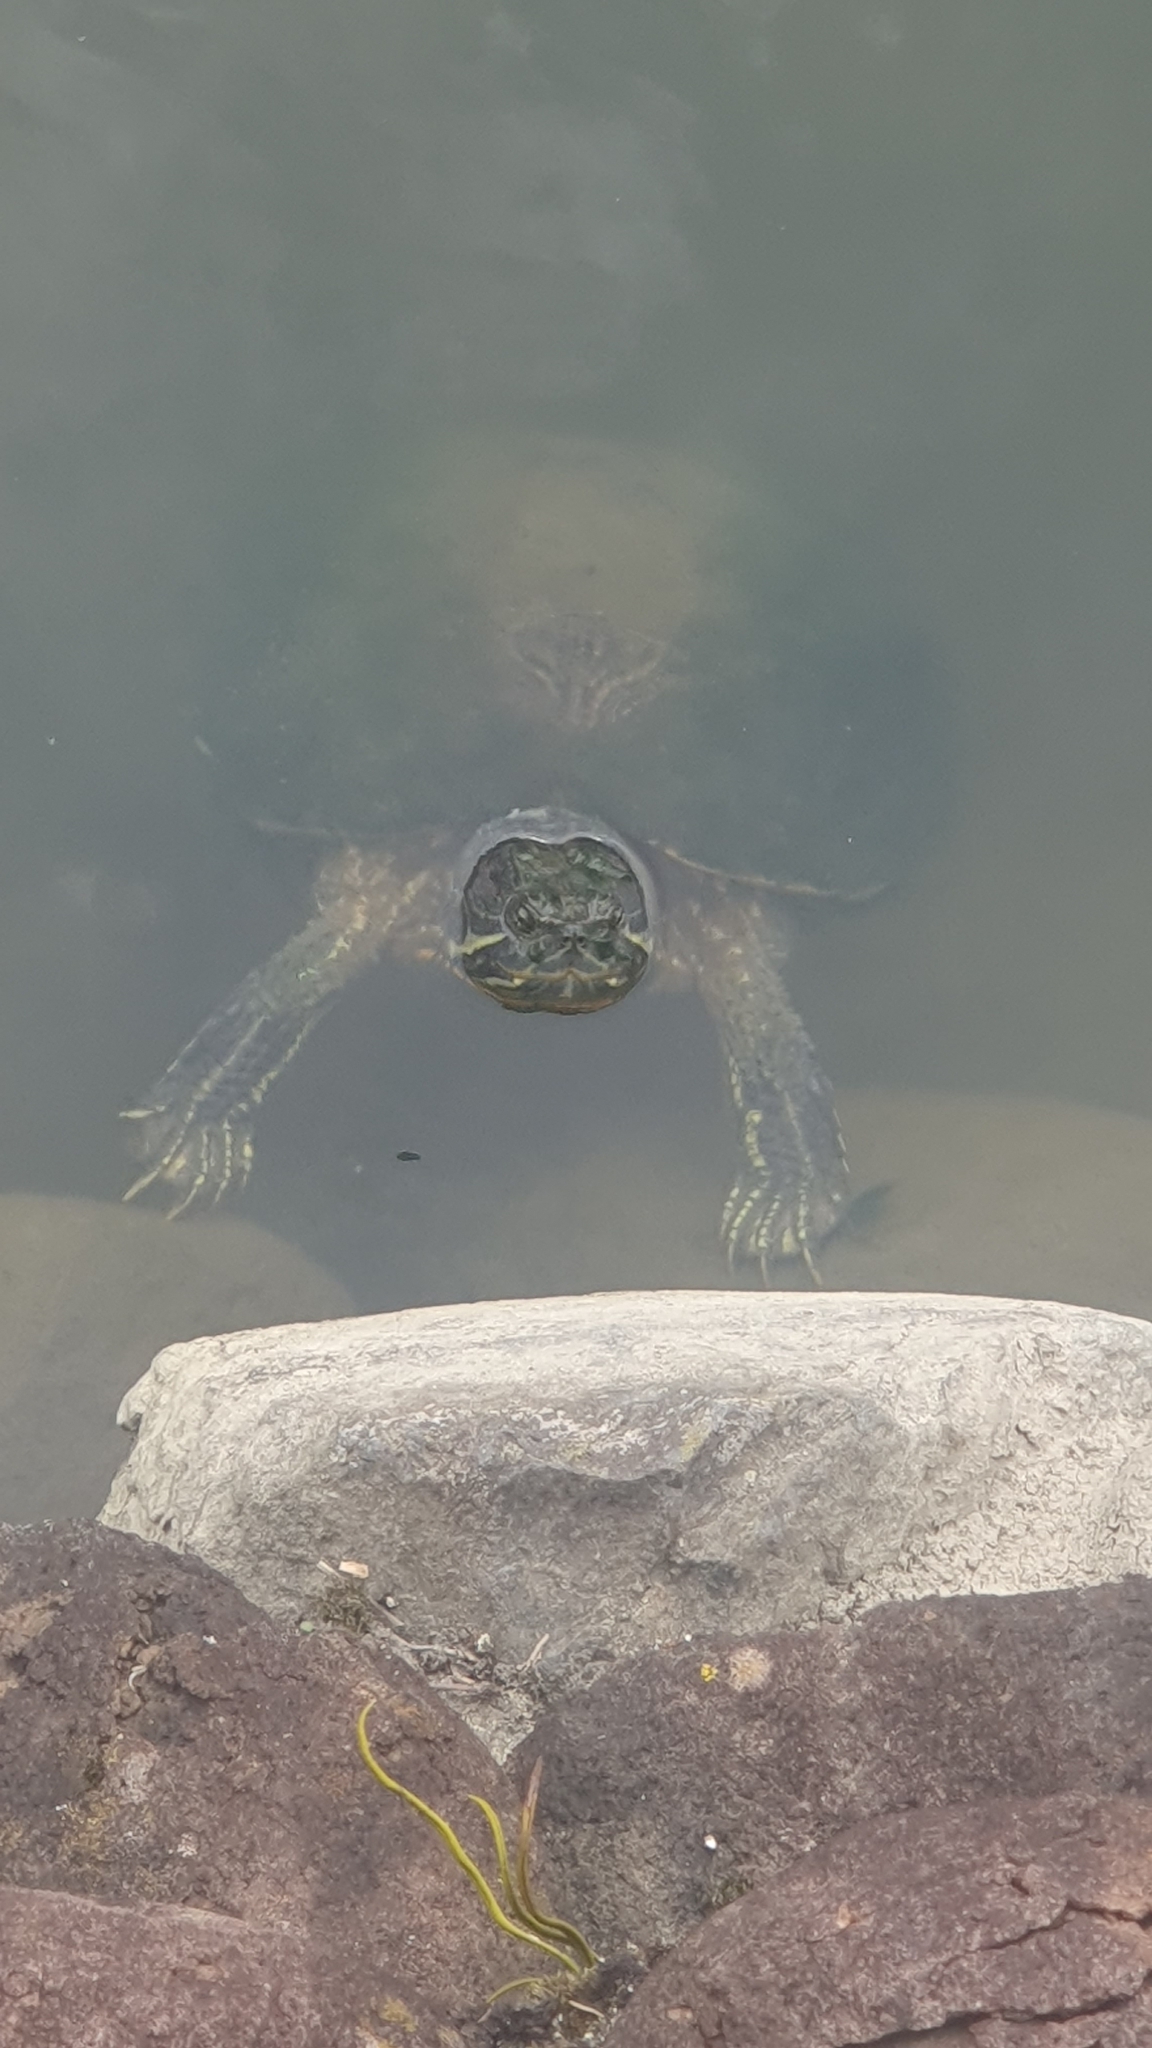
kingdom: Animalia
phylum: Chordata
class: Testudines
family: Emydidae
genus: Trachemys
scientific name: Trachemys scripta
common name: Slider
